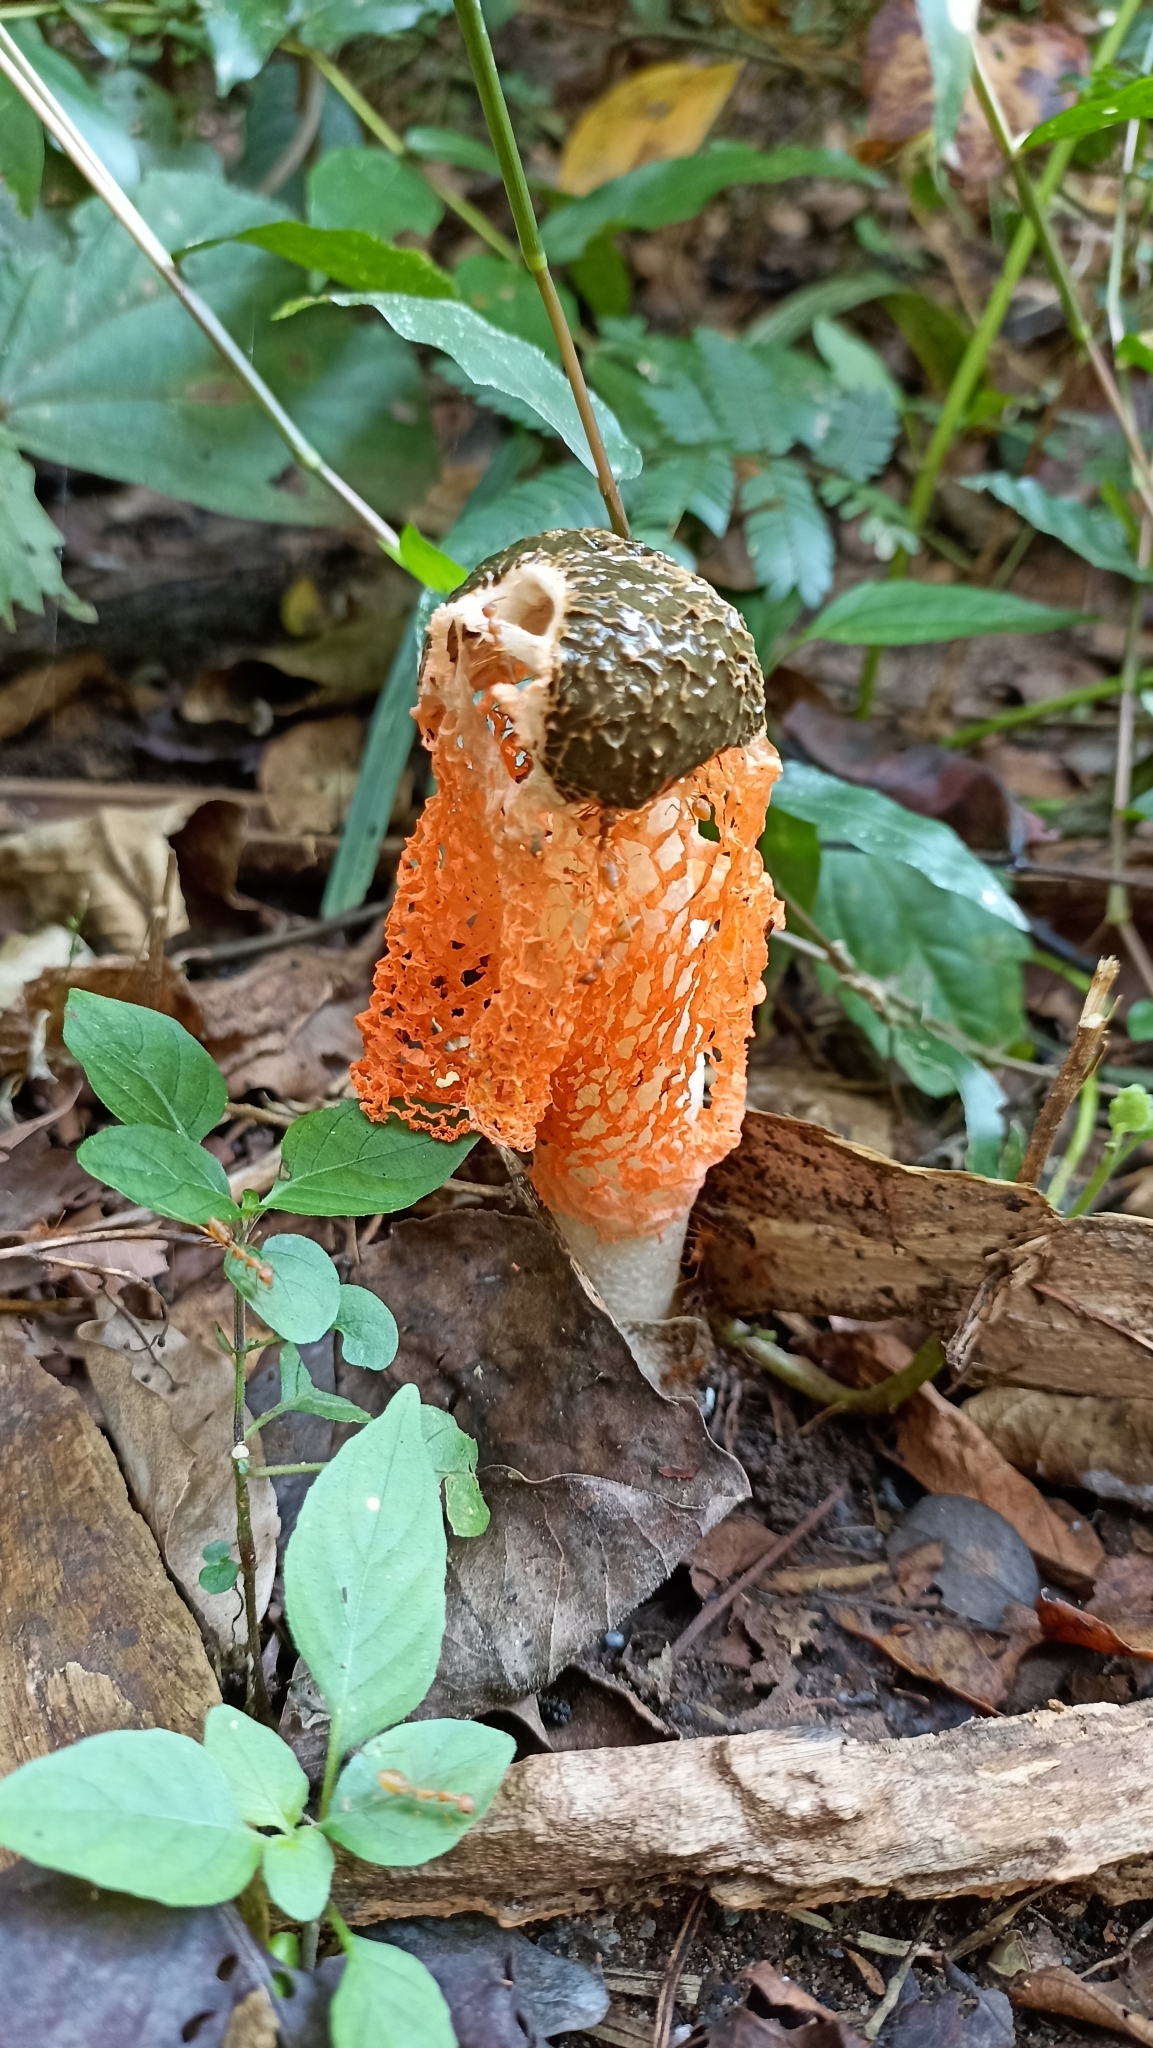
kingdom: Fungi
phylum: Basidiomycota
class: Agaricomycetes
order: Phallales
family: Phallaceae
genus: Phallus
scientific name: Phallus luteus
